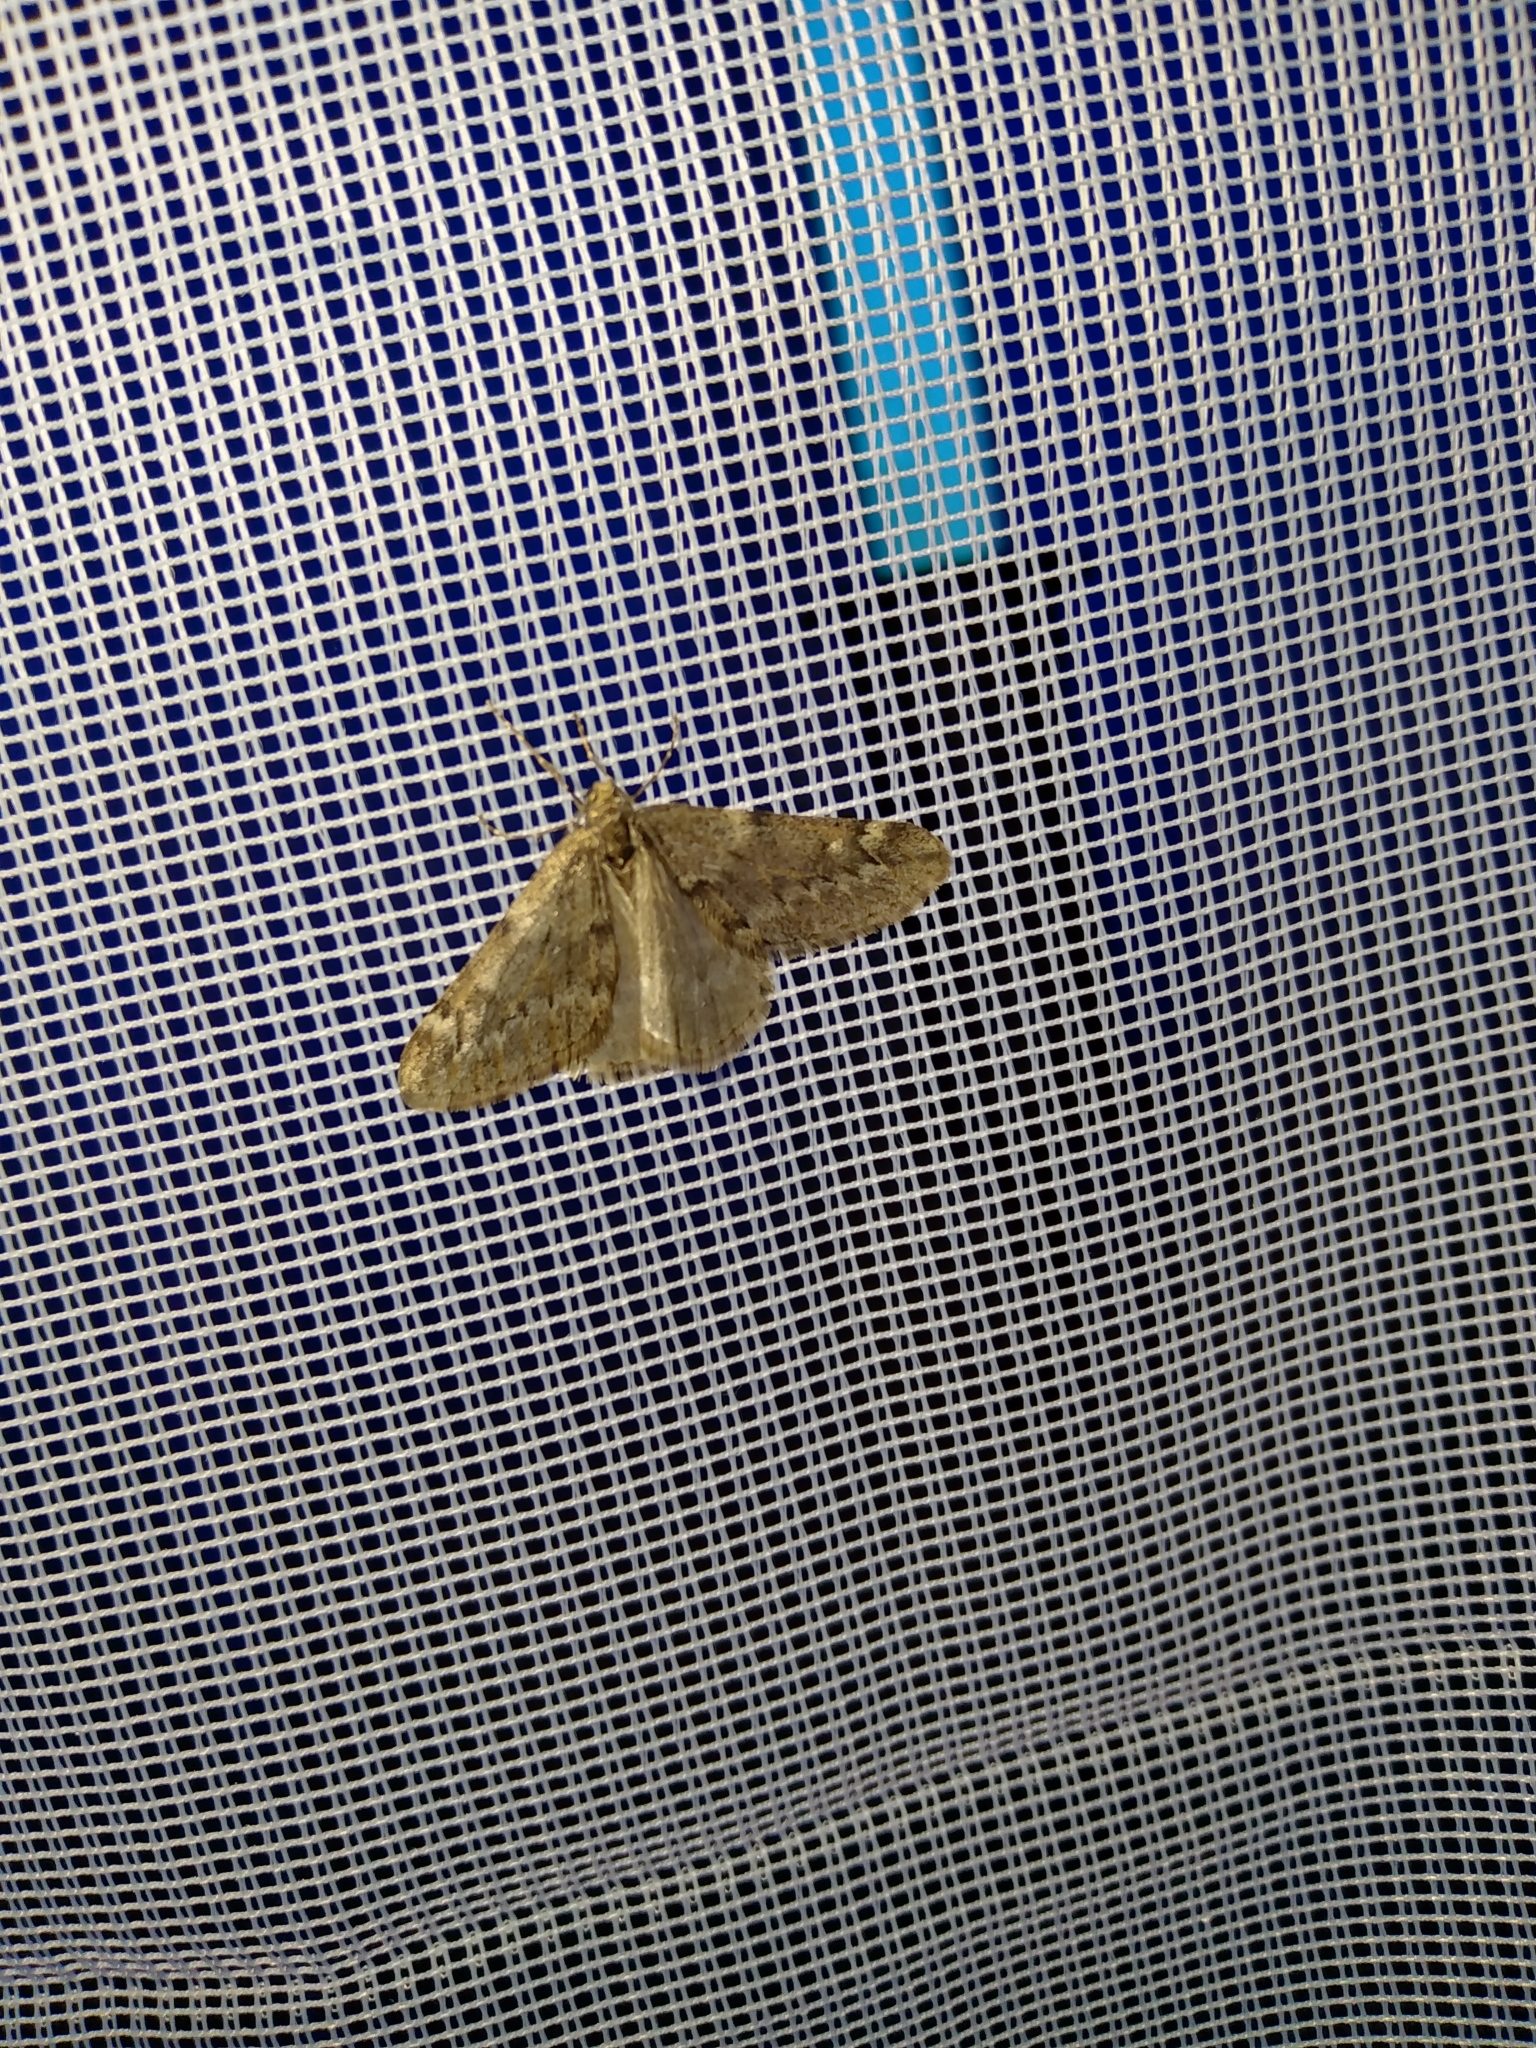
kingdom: Animalia
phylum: Arthropoda
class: Insecta
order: Lepidoptera
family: Geometridae
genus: Alsophila
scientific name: Alsophila aescularia
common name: March moth
